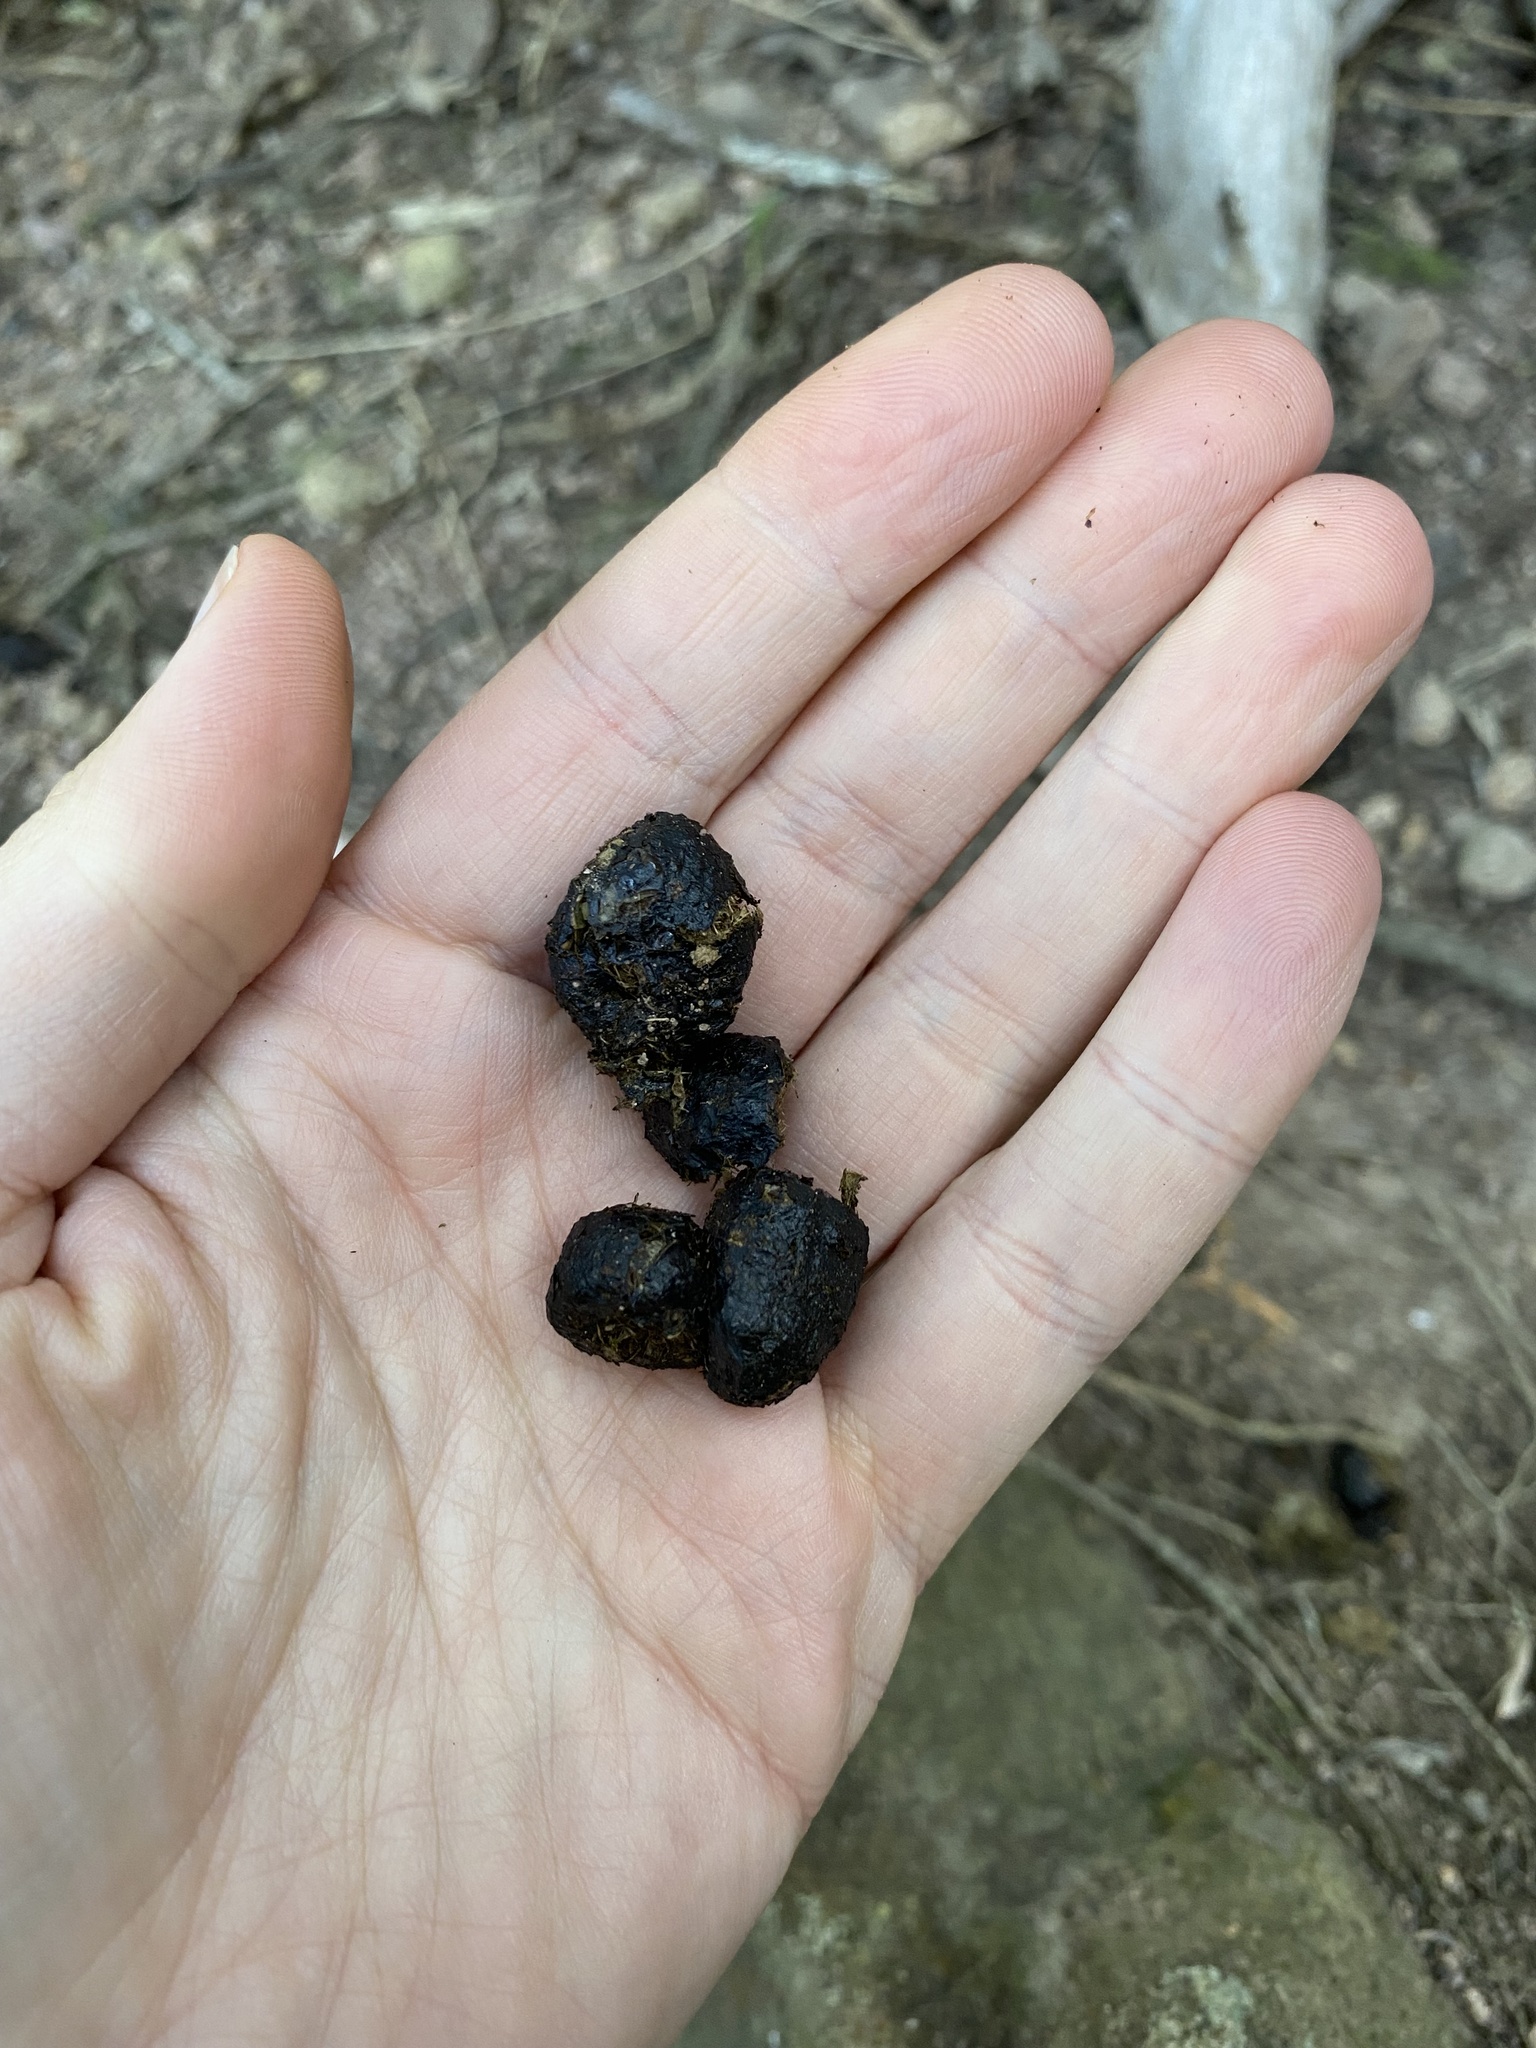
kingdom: Animalia
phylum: Chordata
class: Mammalia
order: Artiodactyla
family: Bovidae
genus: Tragelaphus
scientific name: Tragelaphus scriptus
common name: Bushbuck
